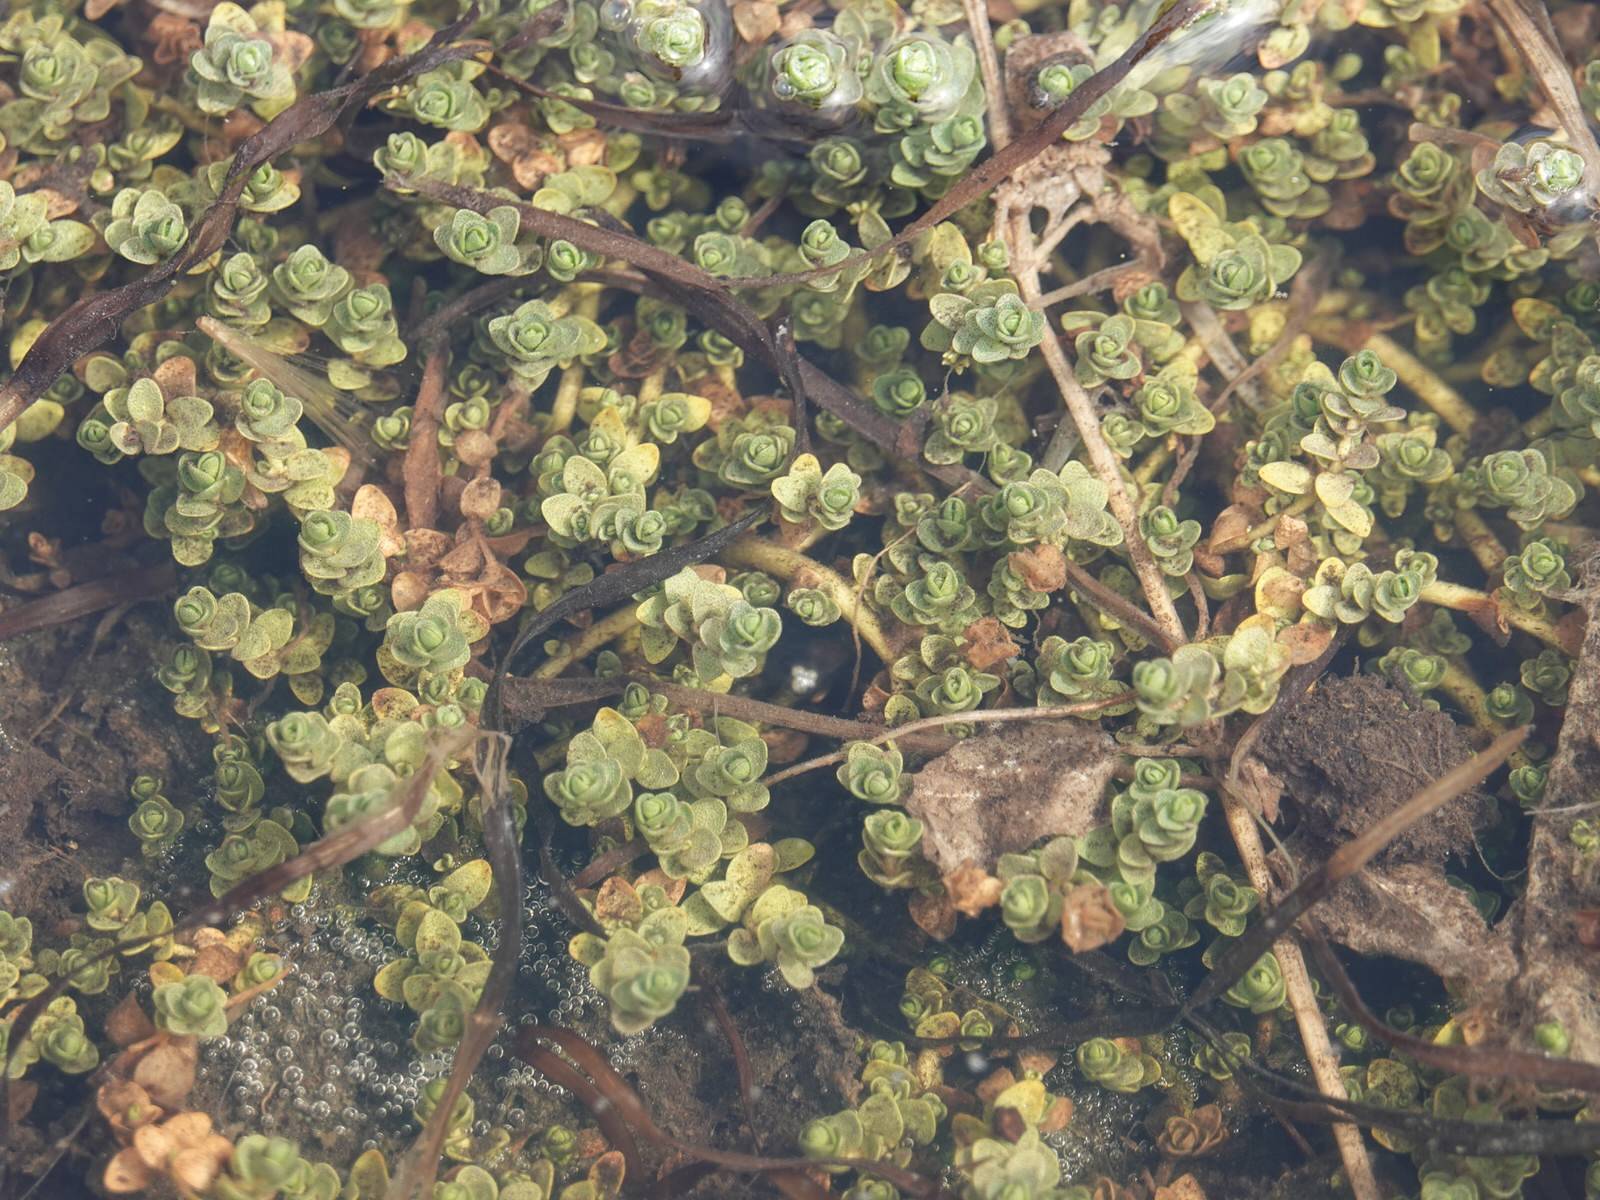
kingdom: Plantae
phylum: Tracheophyta
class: Magnoliopsida
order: Lamiales
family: Phrymaceae
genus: Thyridia
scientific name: Thyridia repens
